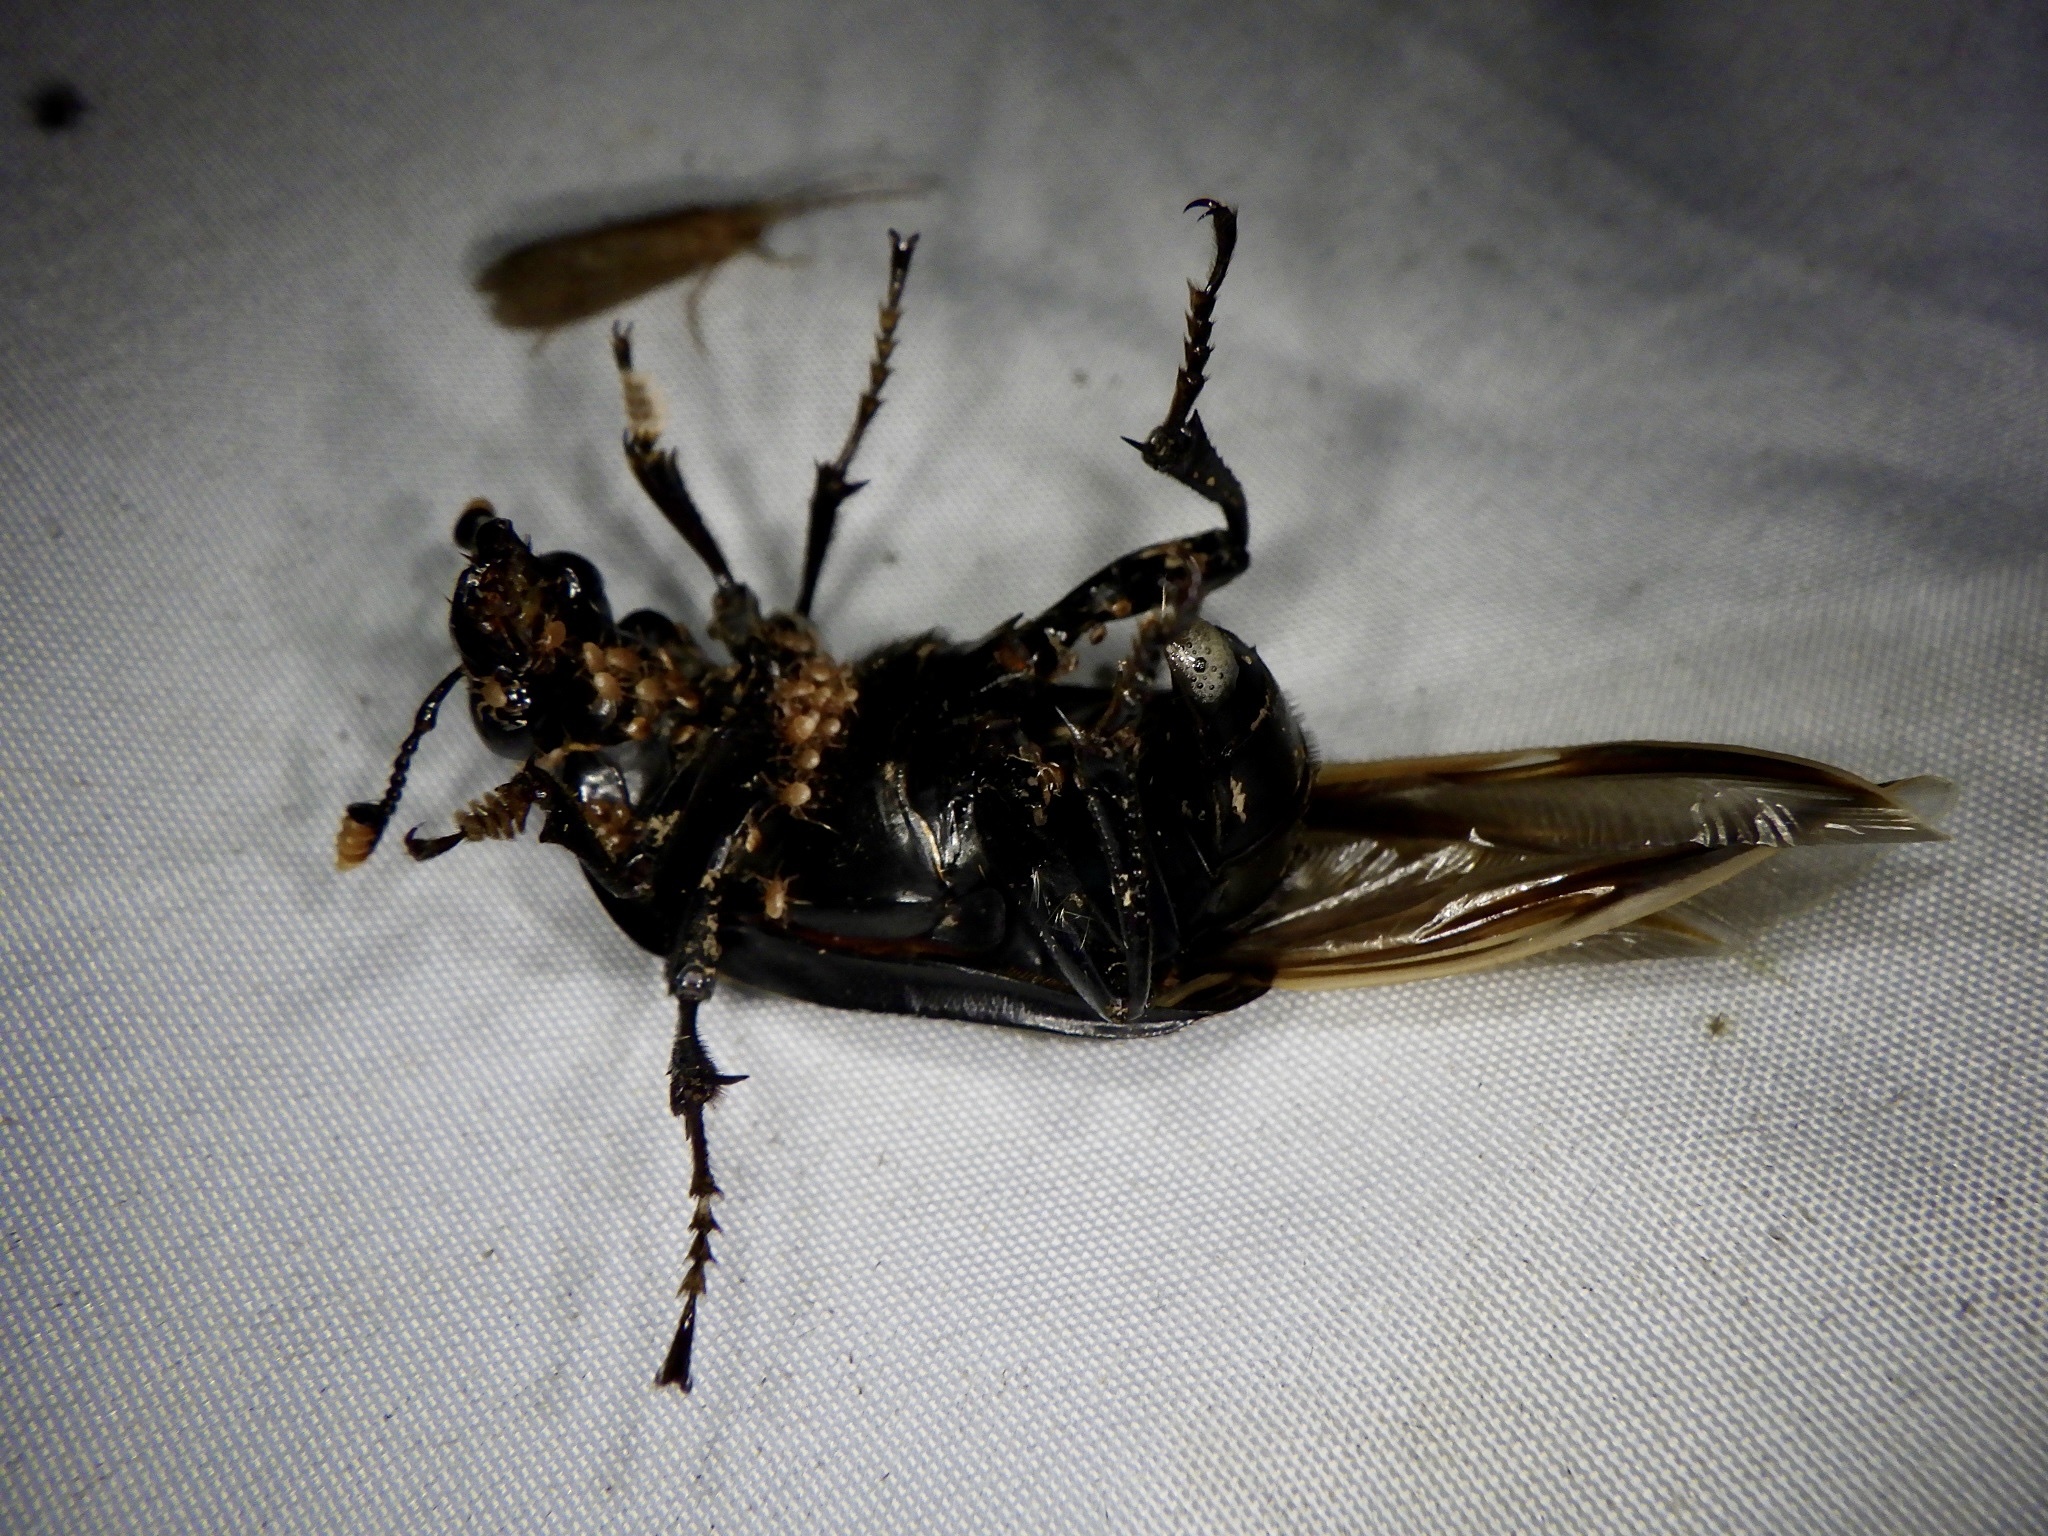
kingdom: Animalia
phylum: Arthropoda
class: Insecta
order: Coleoptera
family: Staphylinidae
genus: Nicrophorus
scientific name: Nicrophorus concolor
